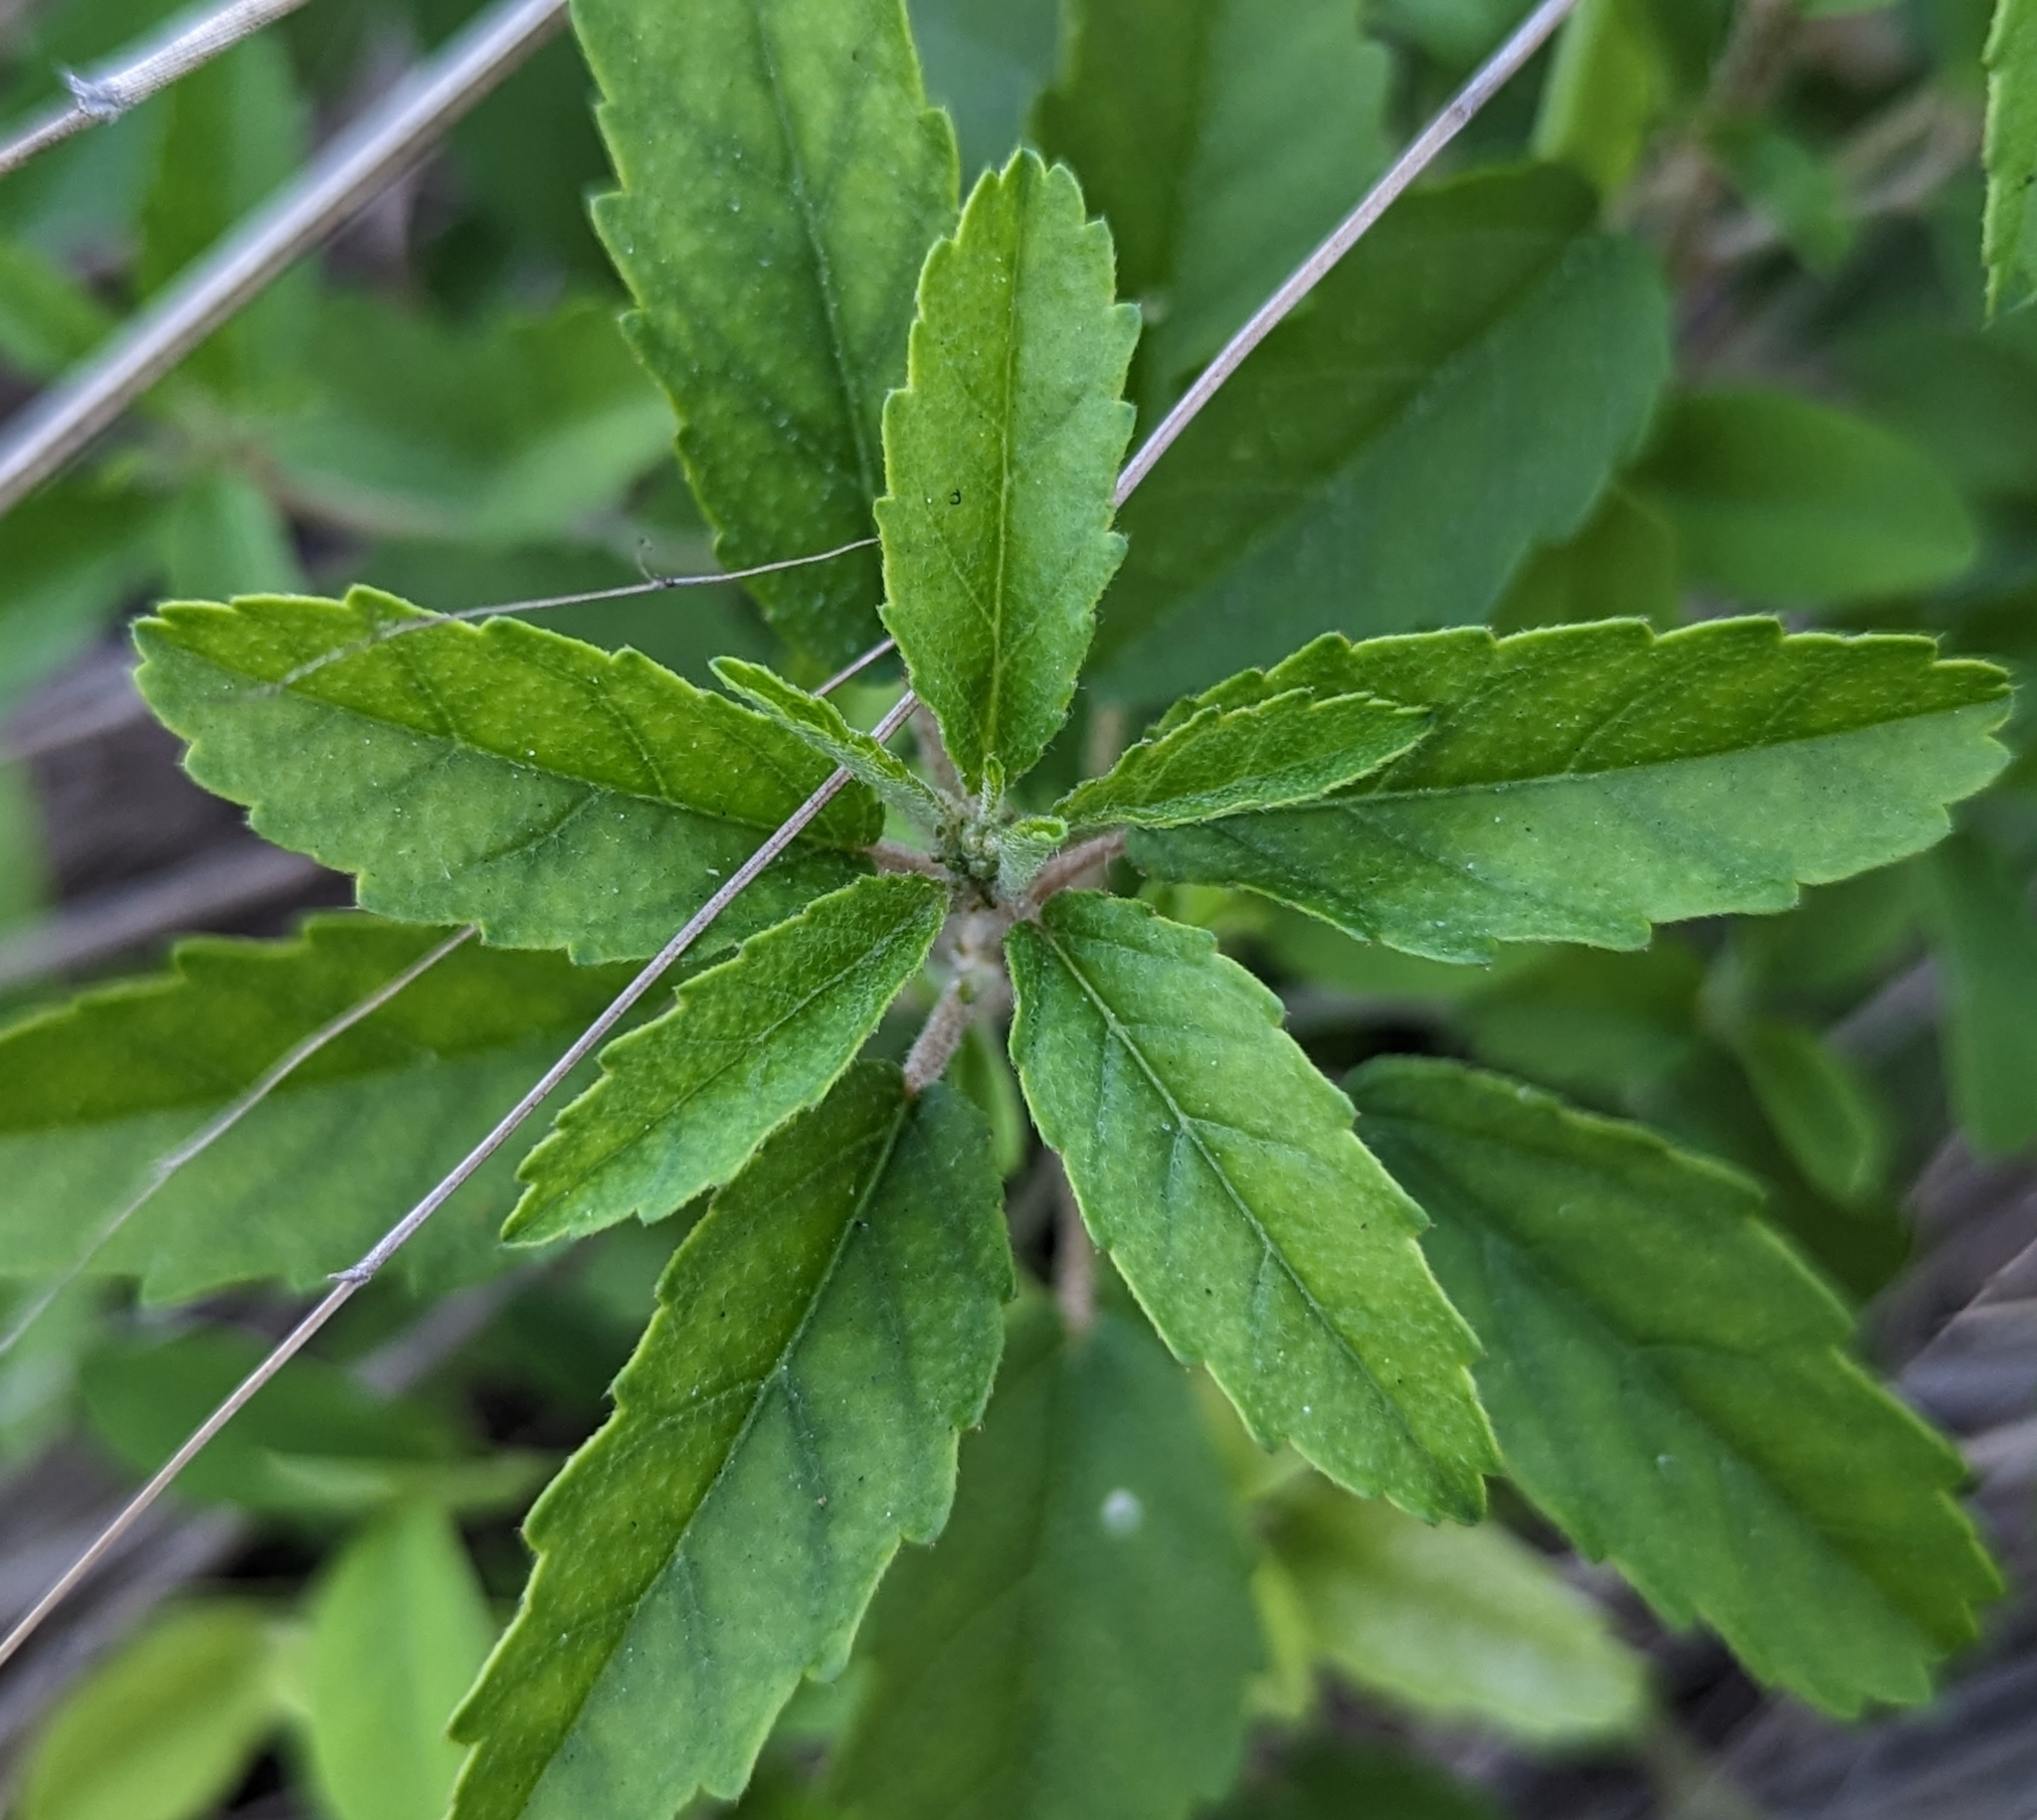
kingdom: Plantae
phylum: Tracheophyta
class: Magnoliopsida
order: Malpighiales
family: Euphorbiaceae
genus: Croton
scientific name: Croton glandulosus
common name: Tropic croton
